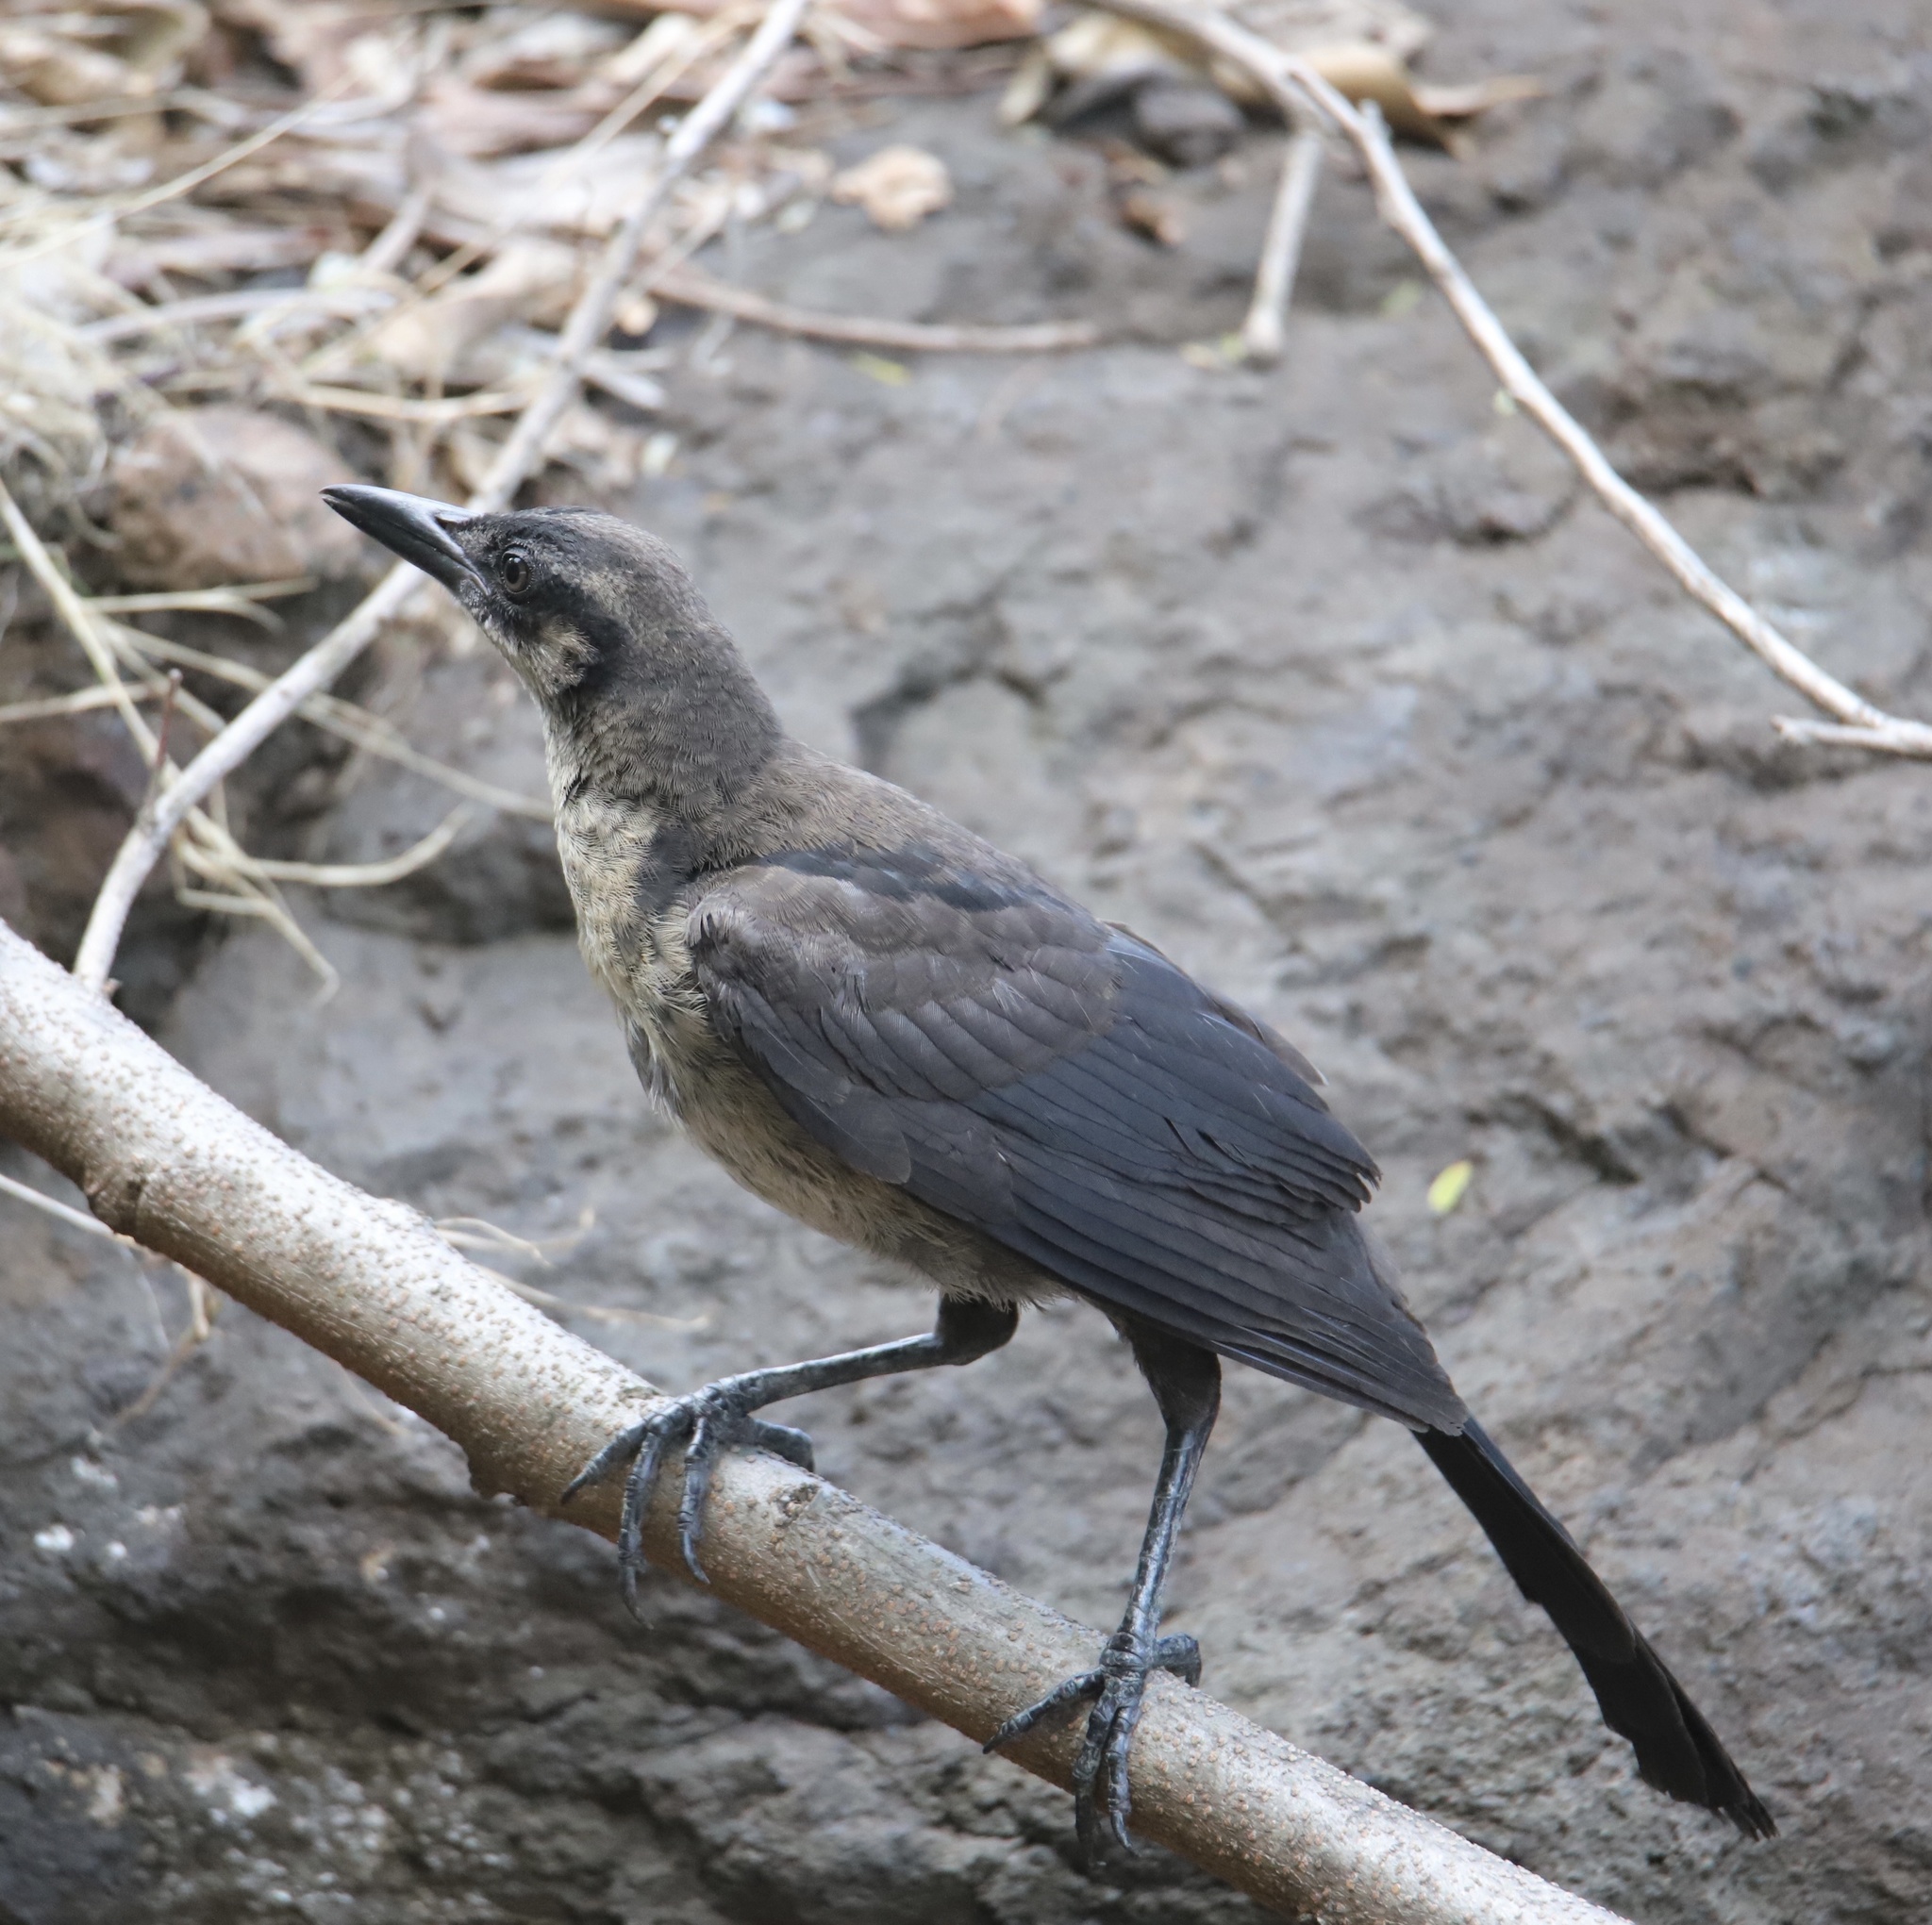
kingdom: Animalia
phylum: Chordata
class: Aves
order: Passeriformes
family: Icteridae
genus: Quiscalus
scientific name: Quiscalus mexicanus
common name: Great-tailed grackle
